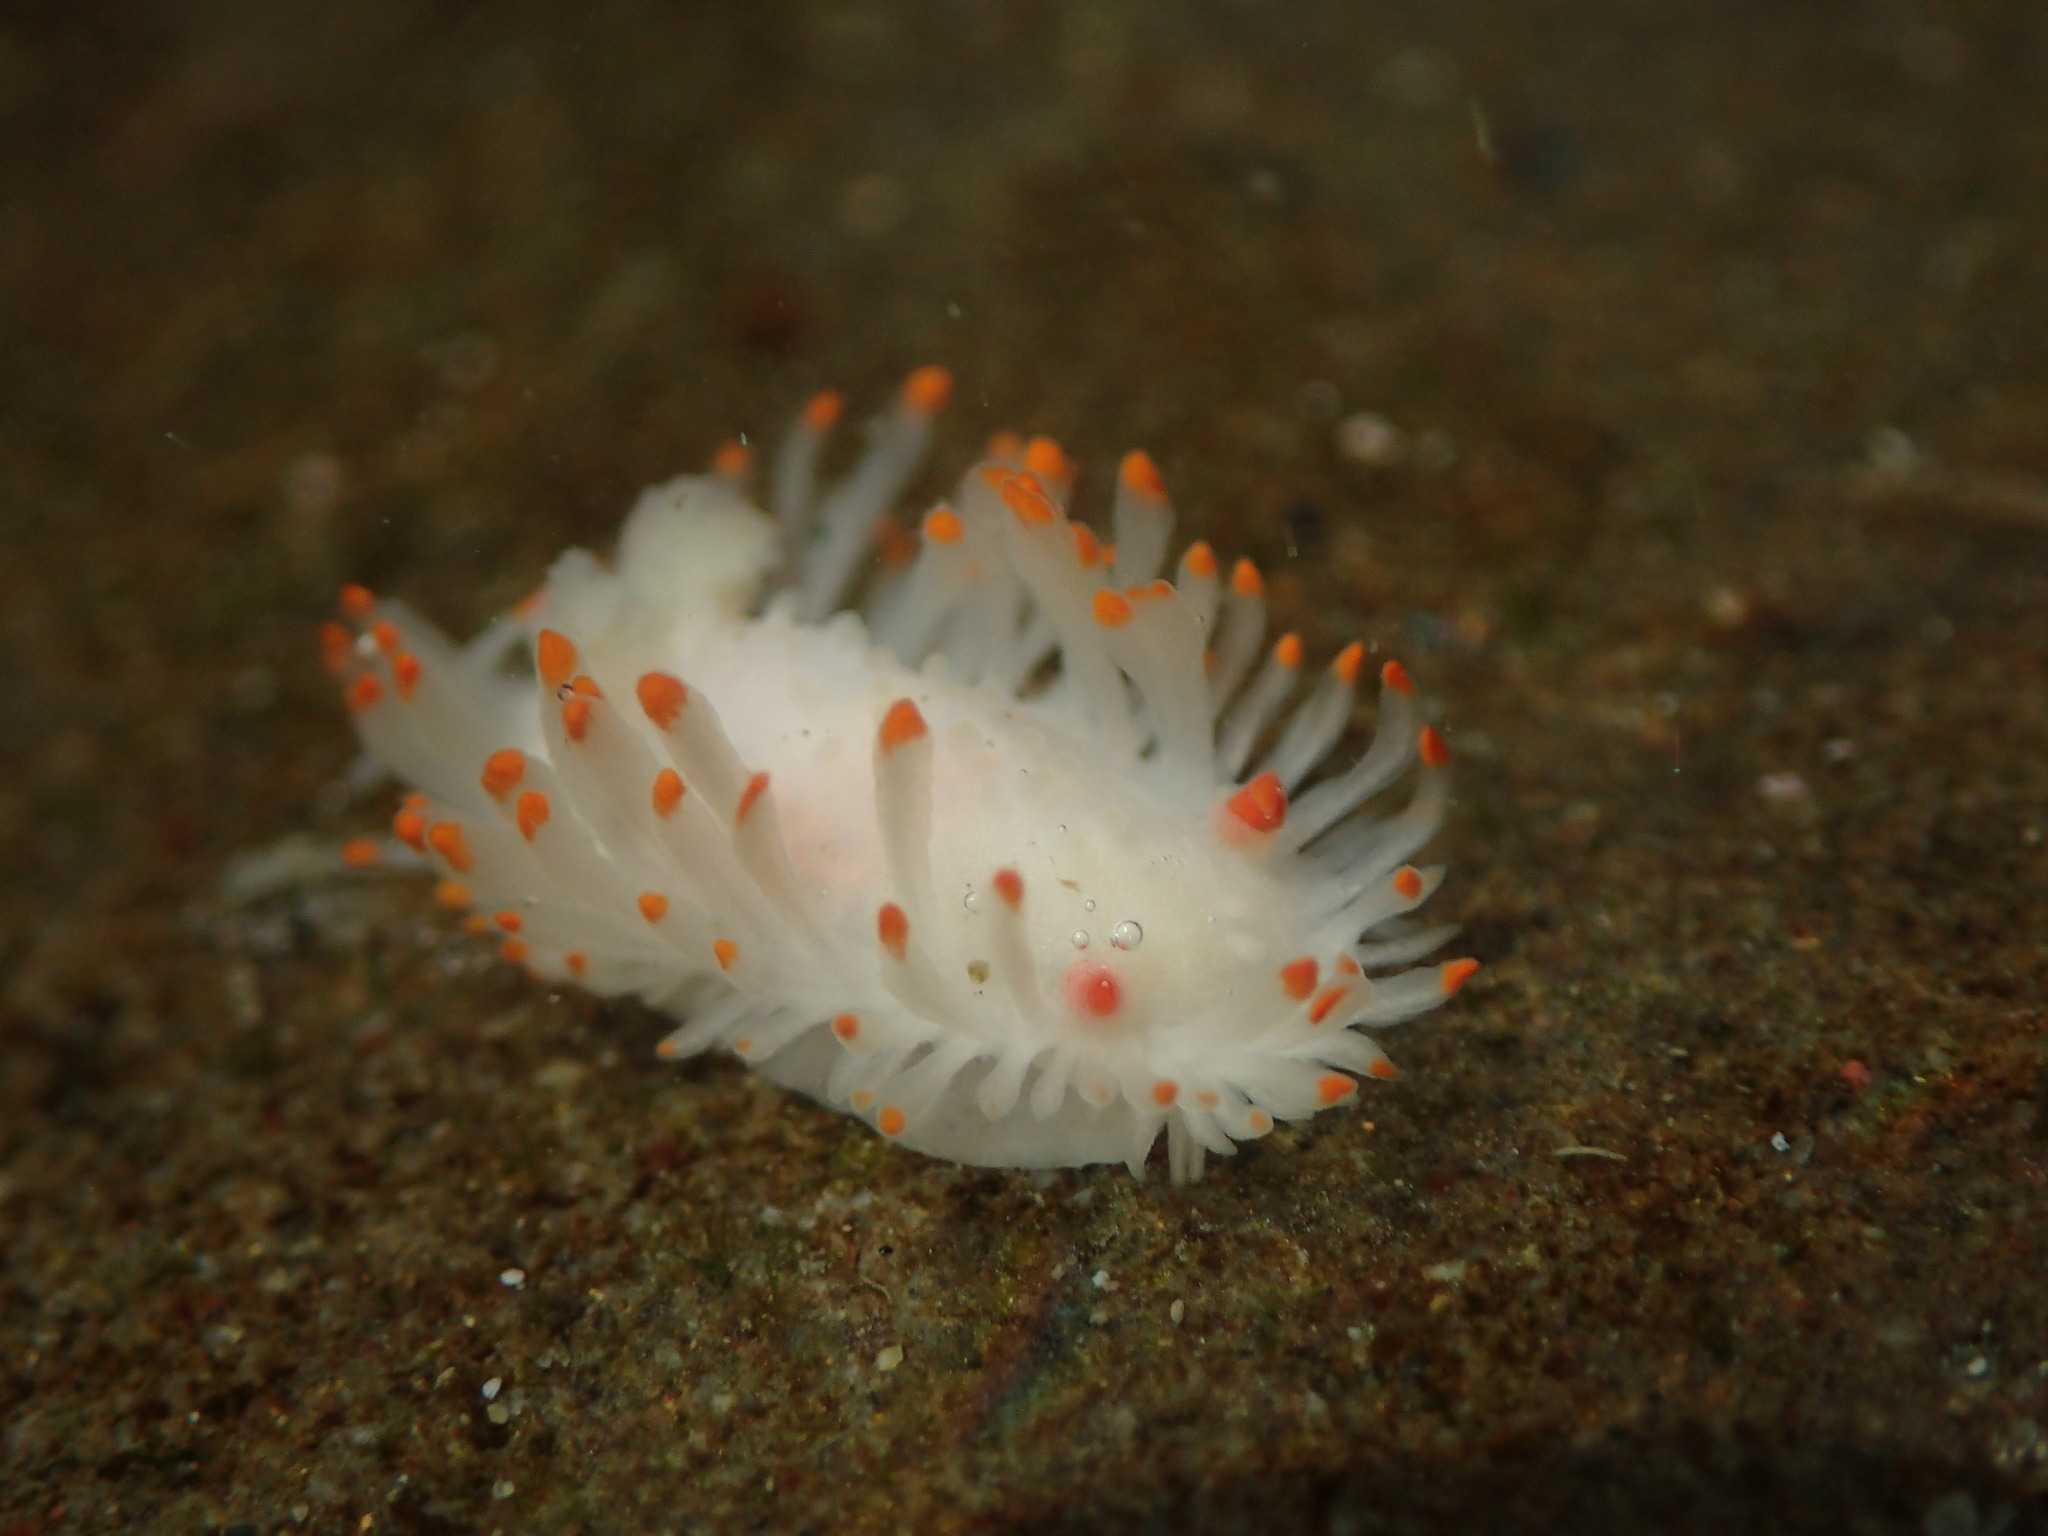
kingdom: Animalia
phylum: Mollusca
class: Gastropoda
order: Nudibranchia
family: Polyceridae
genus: Limacia
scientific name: Limacia cockerelli
